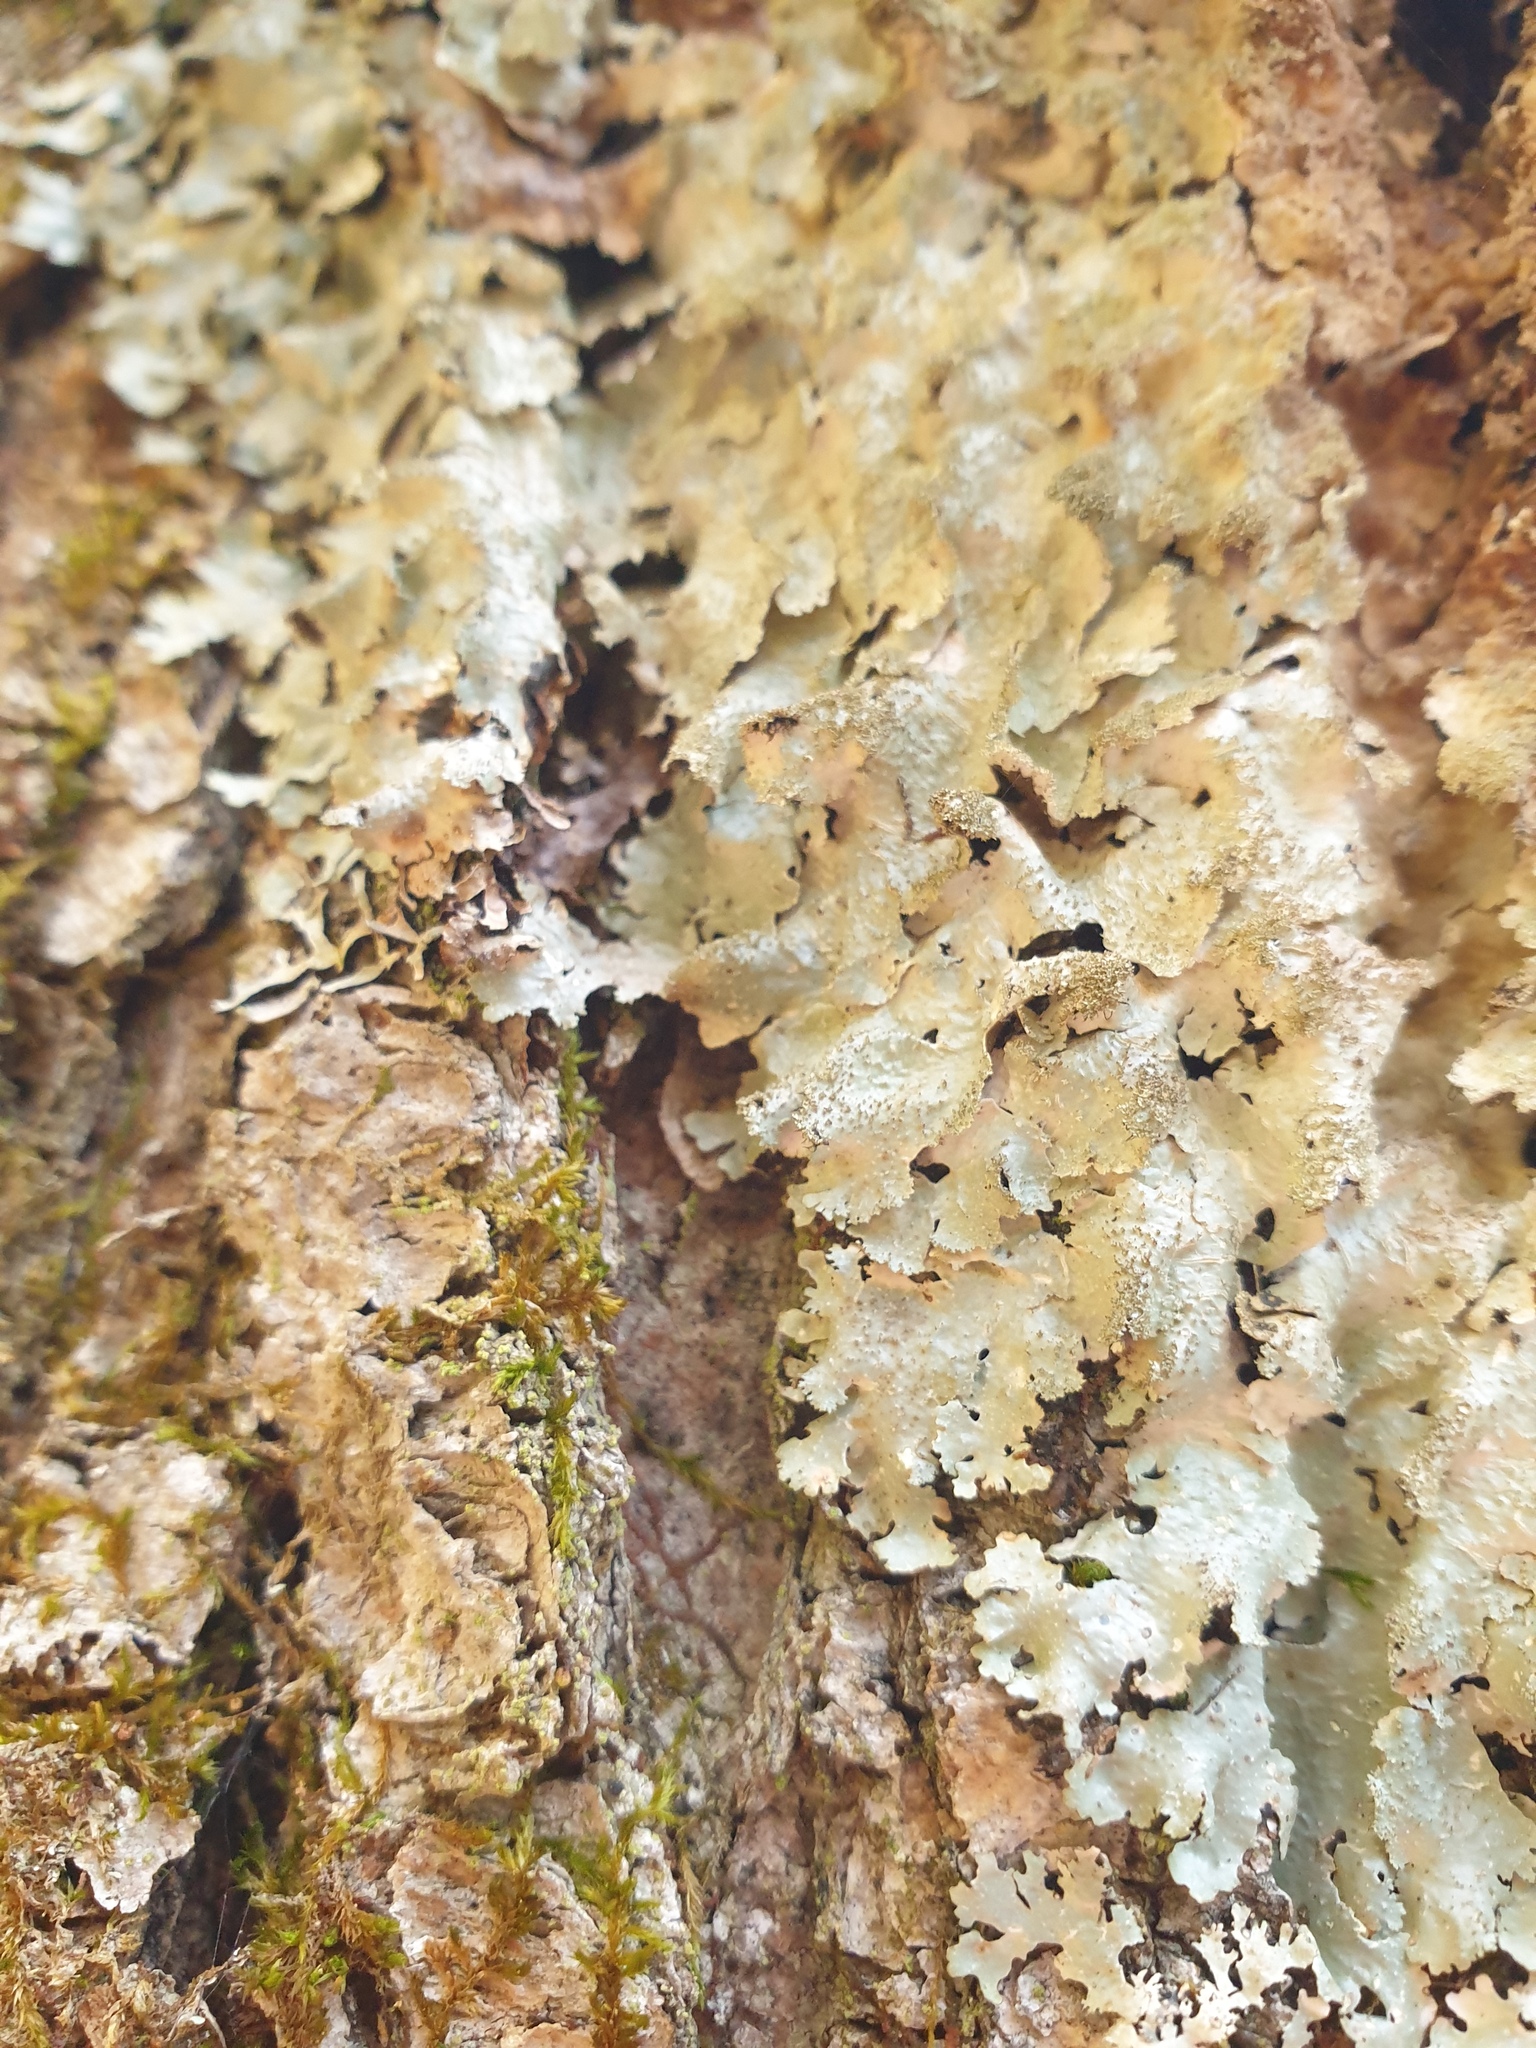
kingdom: Fungi
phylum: Ascomycota
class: Lecanoromycetes
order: Lecanorales
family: Parmeliaceae
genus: Punctelia
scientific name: Punctelia rudecta
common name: Rough speckled shield lichen
